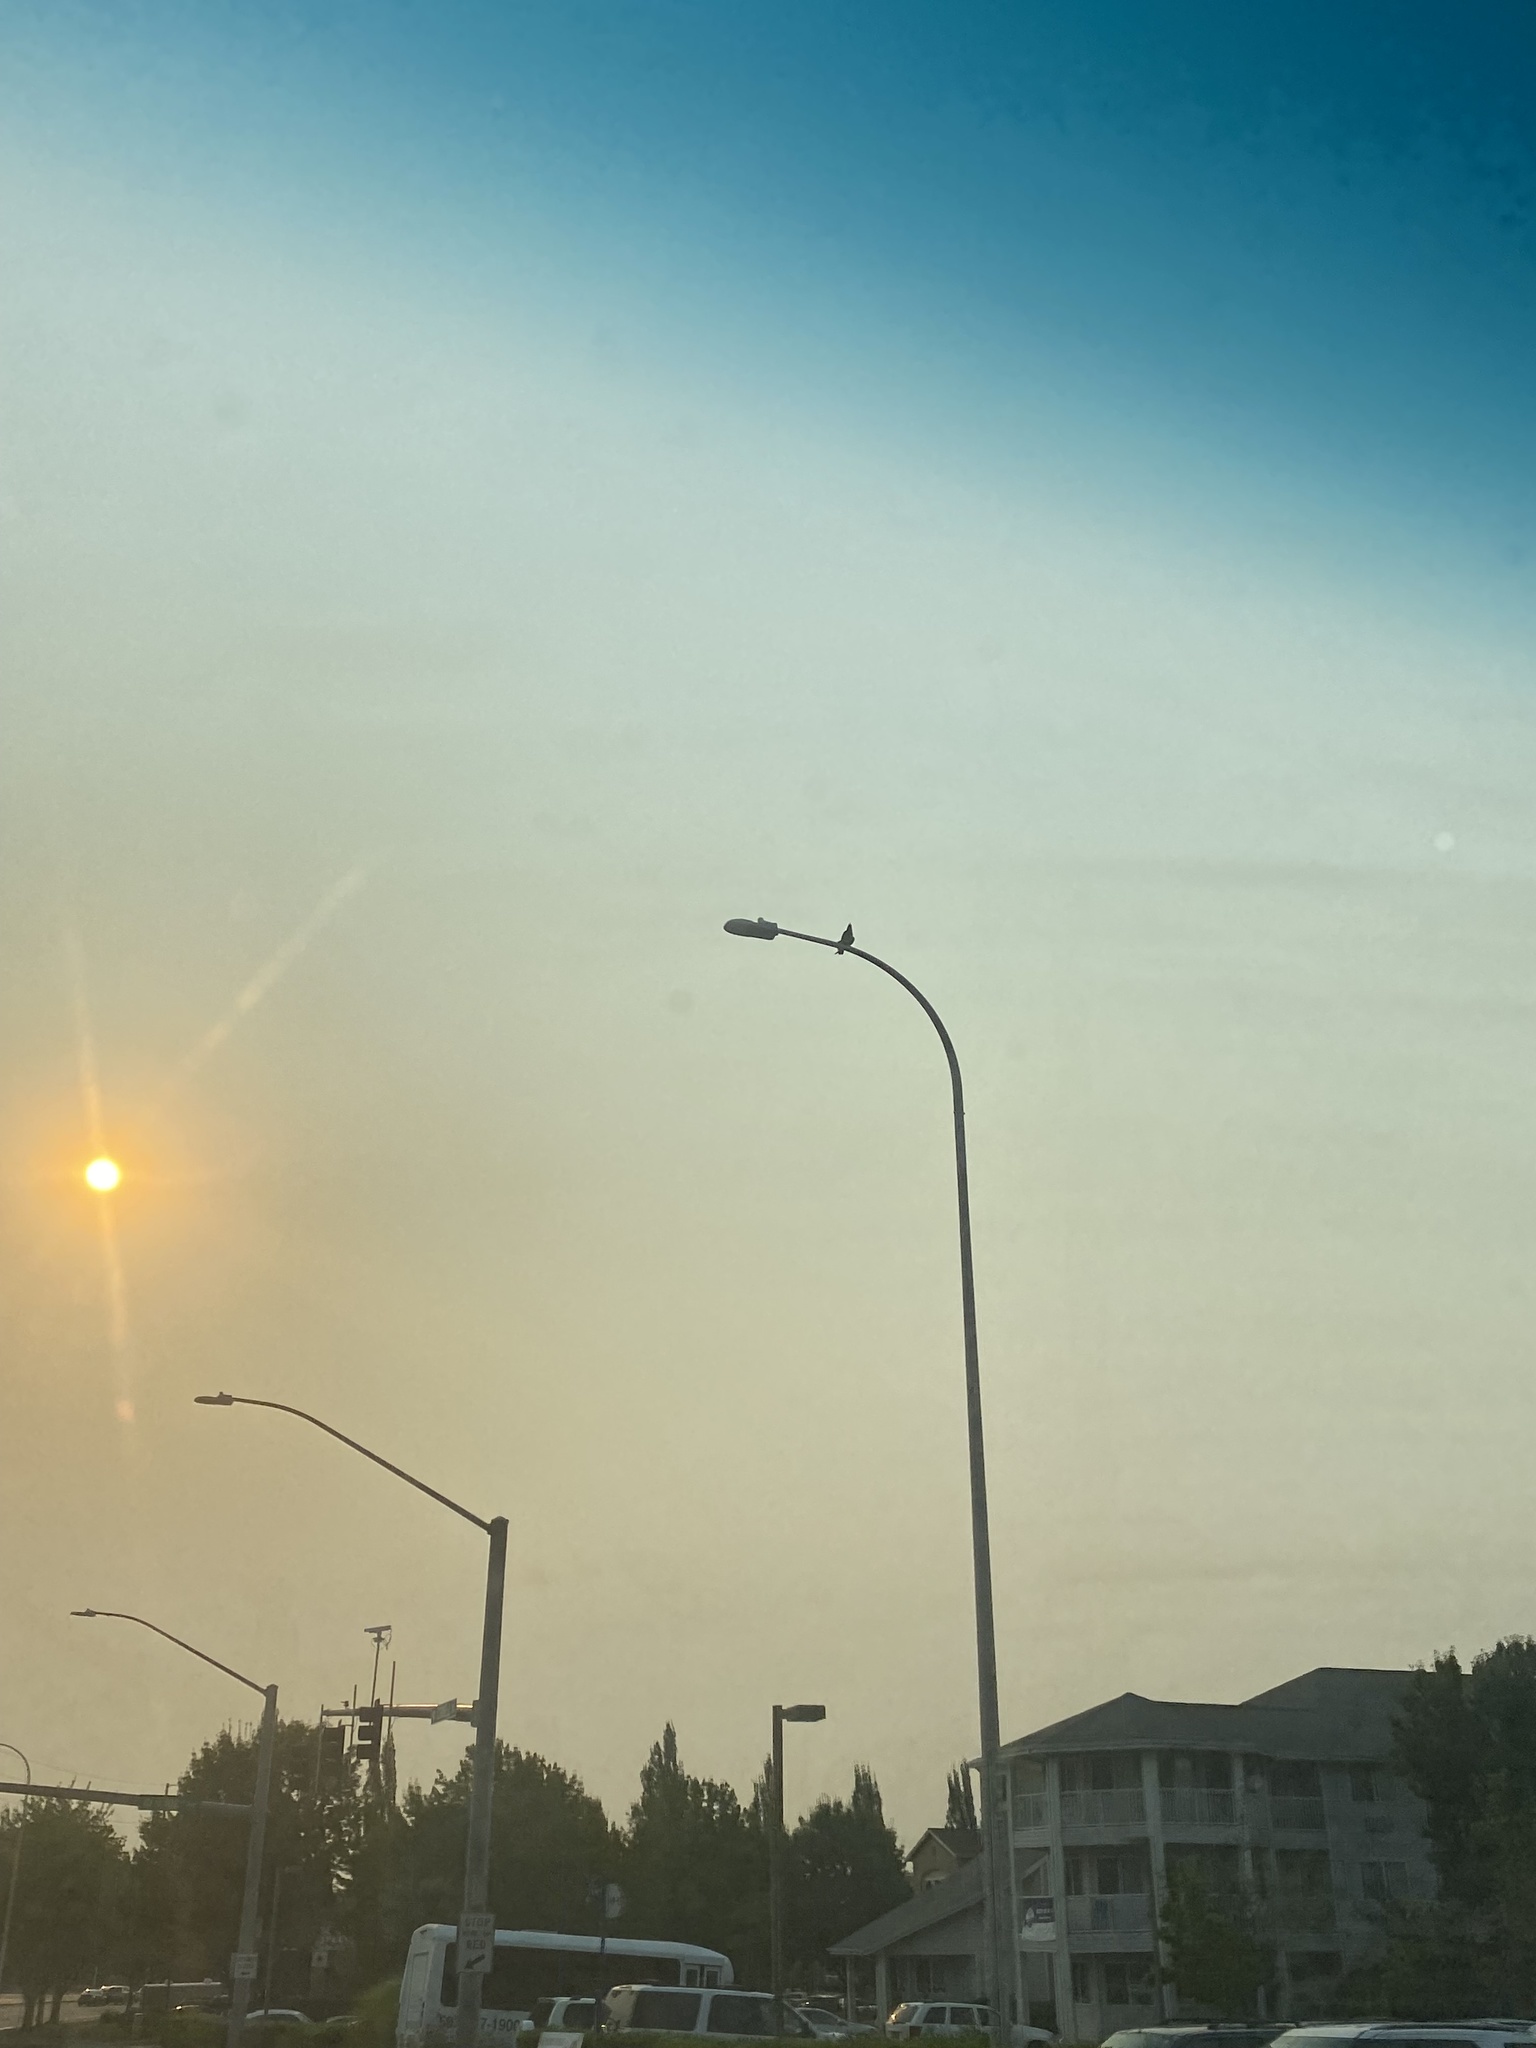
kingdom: Animalia
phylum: Chordata
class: Aves
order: Passeriformes
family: Corvidae
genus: Corvus
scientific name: Corvus brachyrhynchos
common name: American crow
